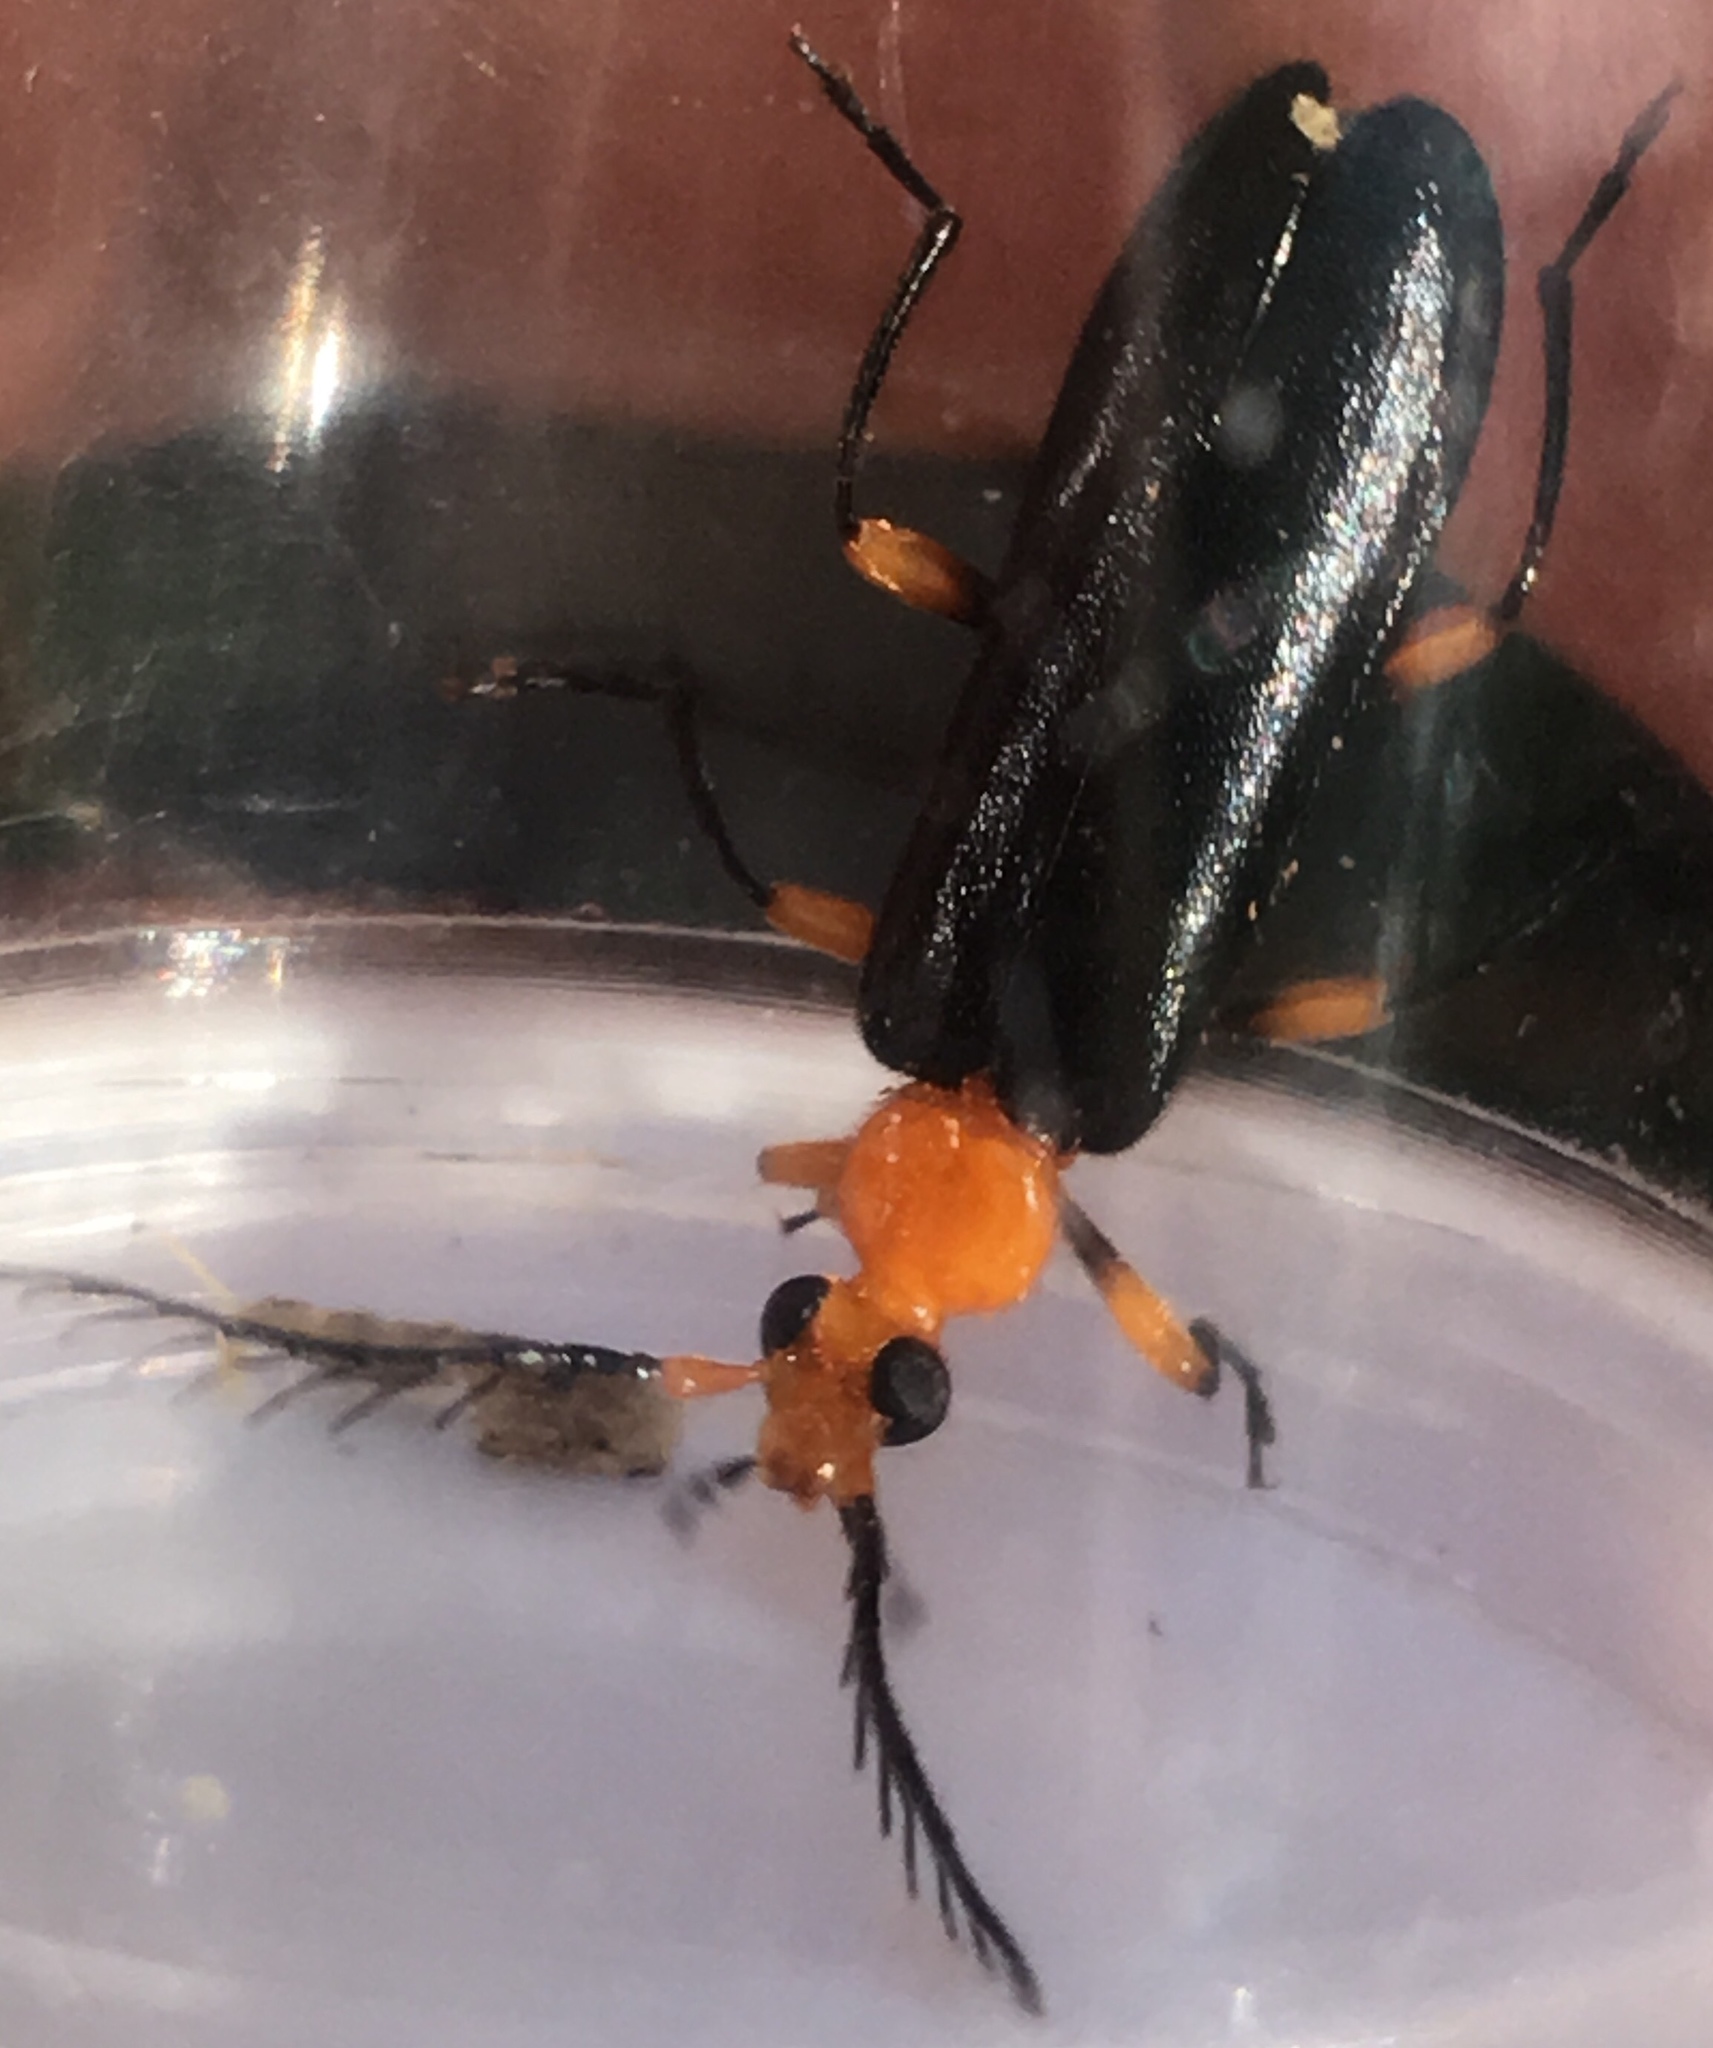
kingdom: Animalia
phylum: Arthropoda
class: Insecta
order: Coleoptera
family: Pyrochroidae
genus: Neopyrochroa
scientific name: Neopyrochroa femoralis
